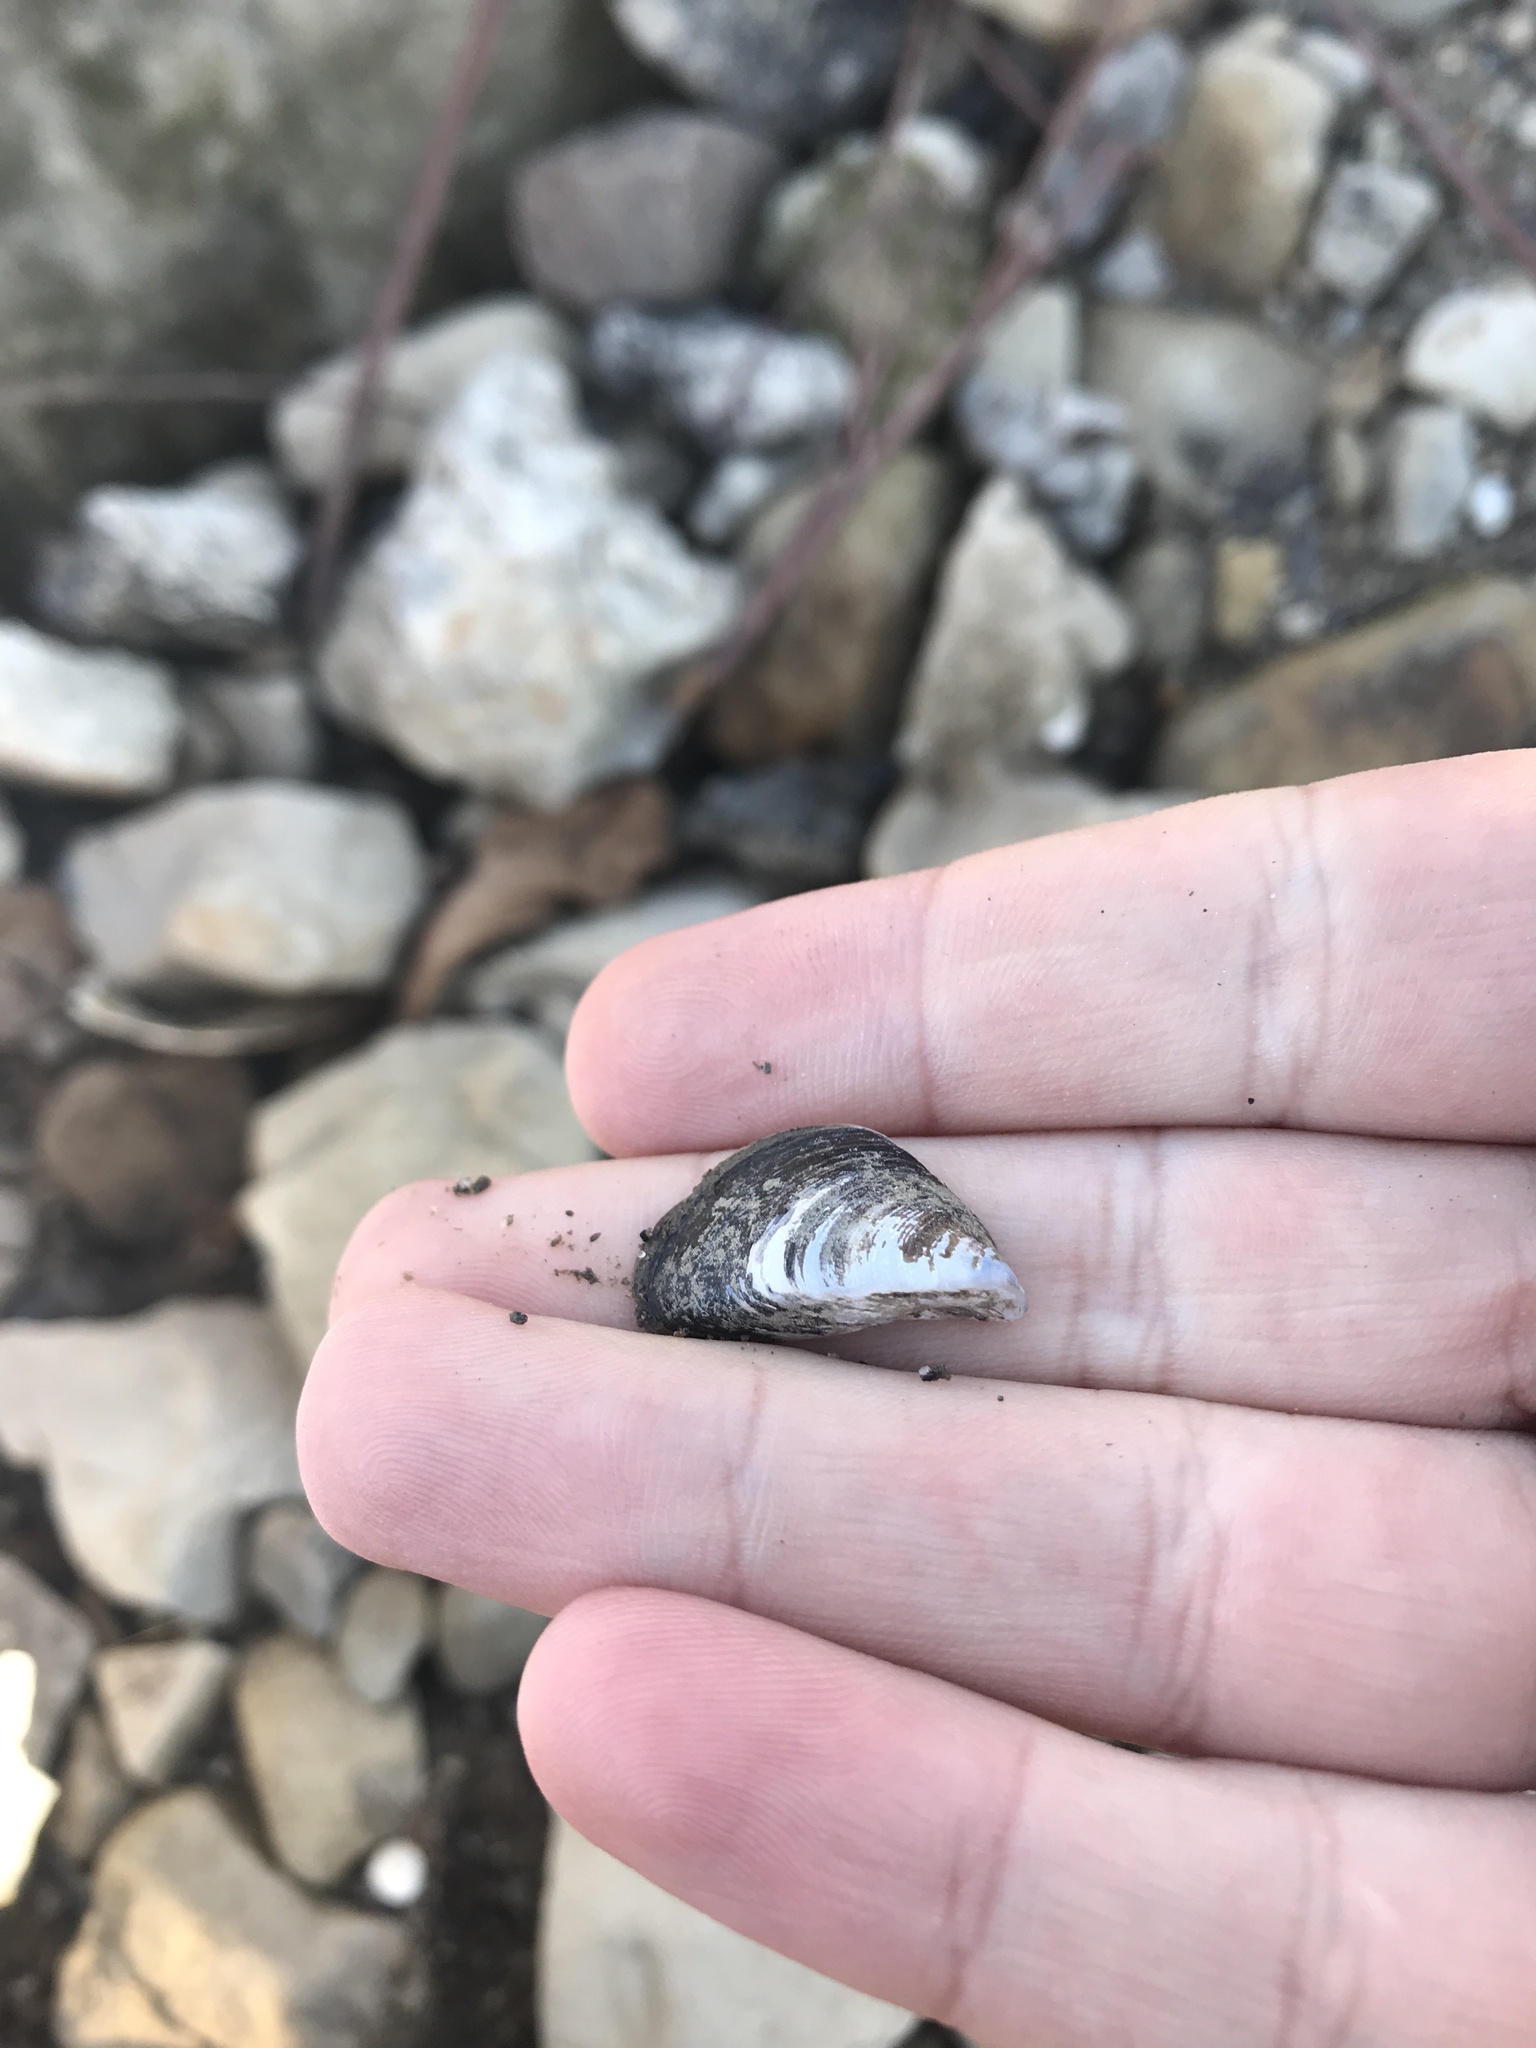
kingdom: Animalia
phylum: Mollusca
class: Bivalvia
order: Myida
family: Dreissenidae
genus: Dreissena
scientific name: Dreissena polymorpha
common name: Zebra mussel
